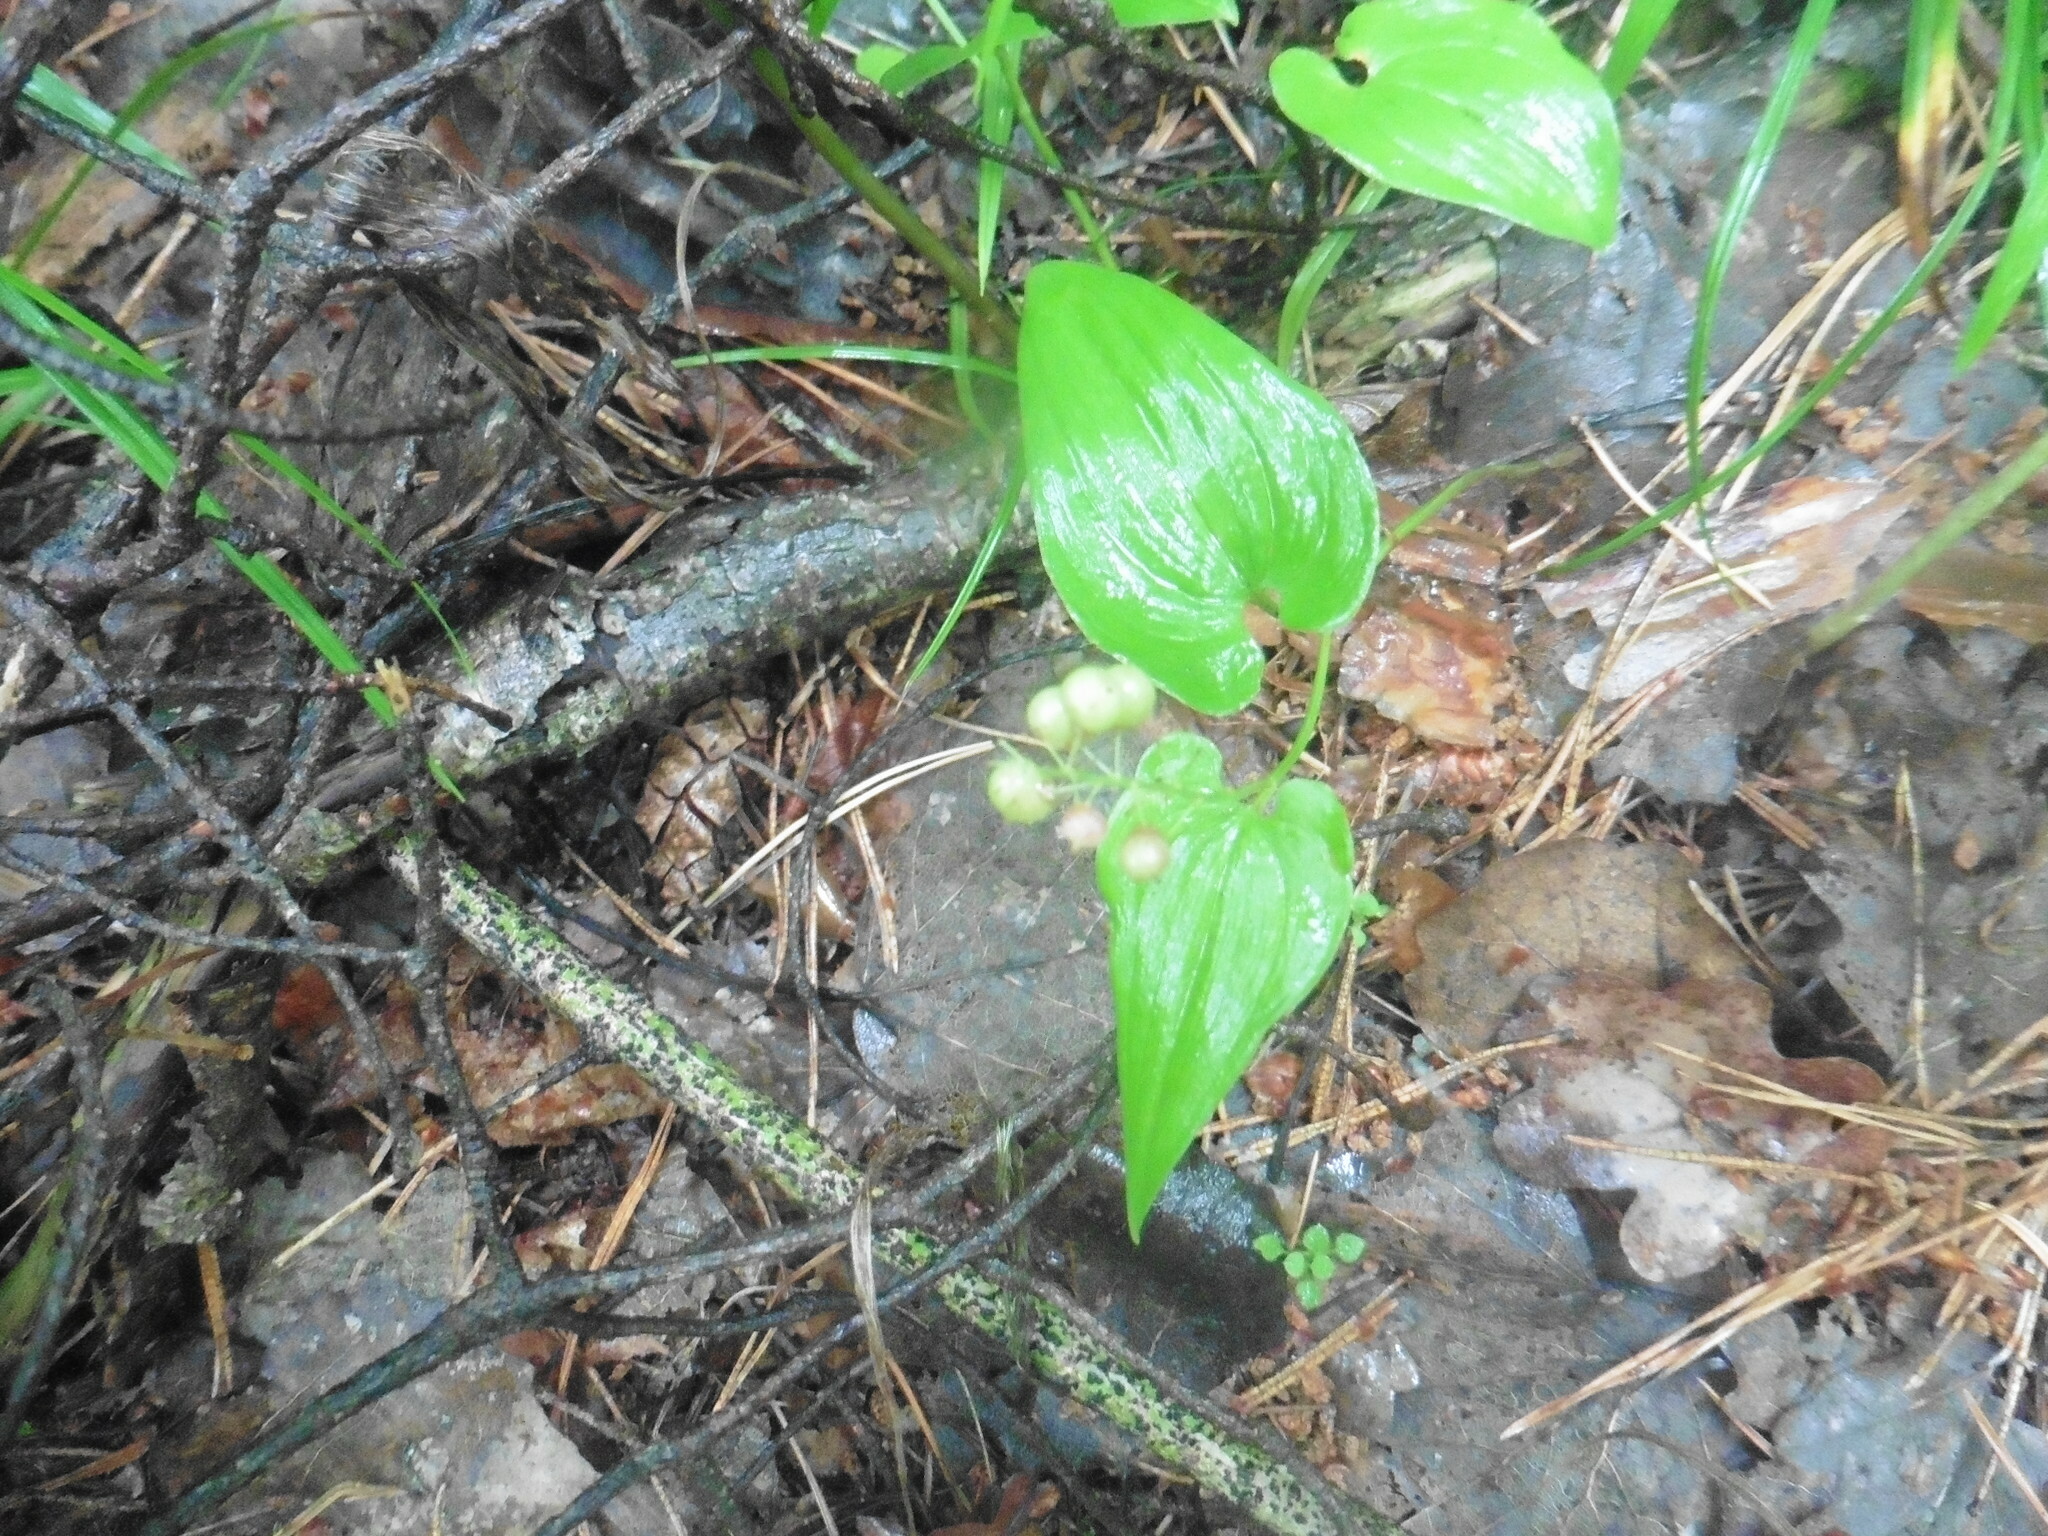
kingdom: Plantae
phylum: Tracheophyta
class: Liliopsida
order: Asparagales
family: Asparagaceae
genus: Maianthemum
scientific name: Maianthemum bifolium
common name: May lily
